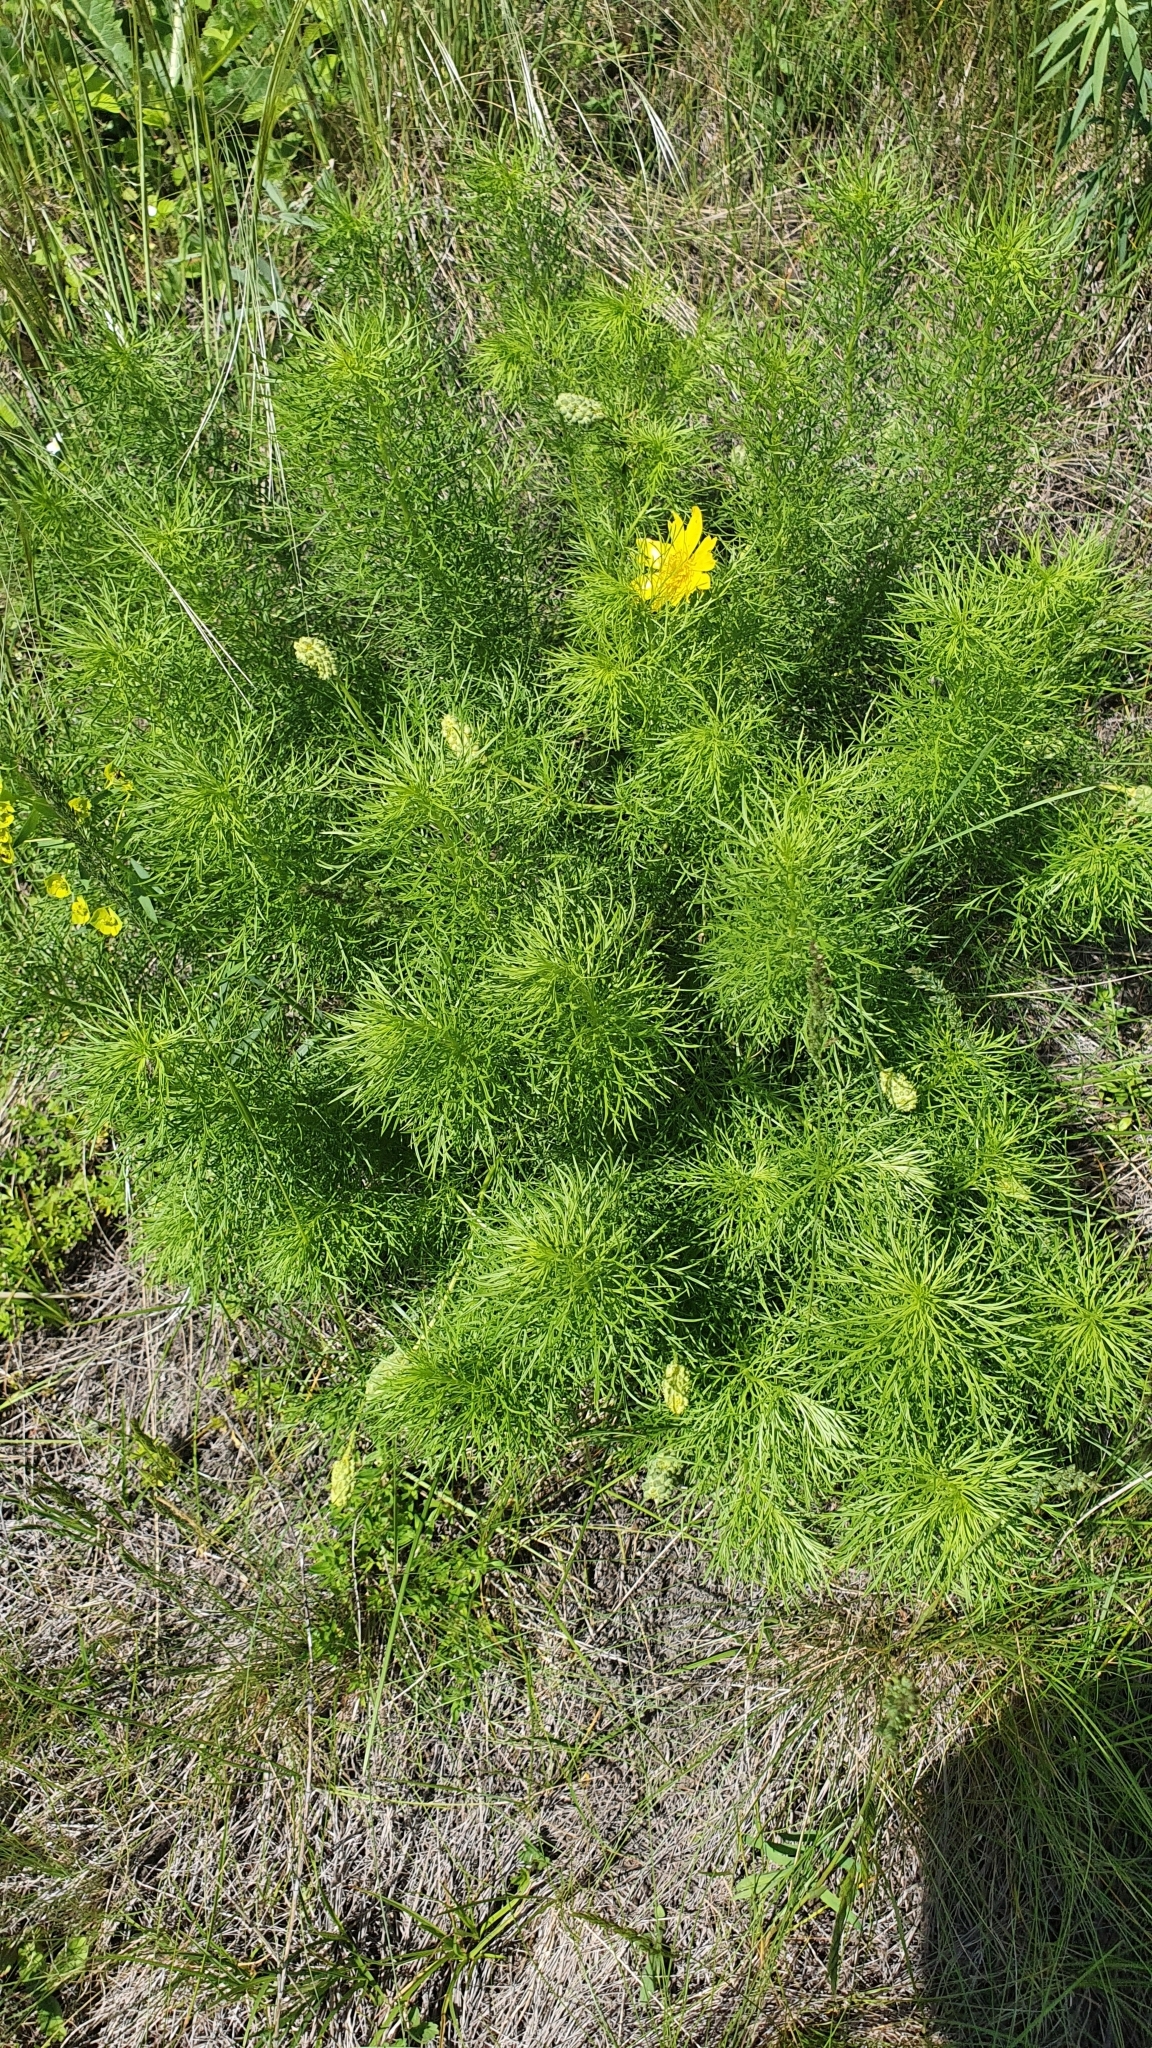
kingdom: Plantae
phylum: Tracheophyta
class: Magnoliopsida
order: Ranunculales
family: Ranunculaceae
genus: Adonis
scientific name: Adonis vernalis
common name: Yellow pheasants-eye
